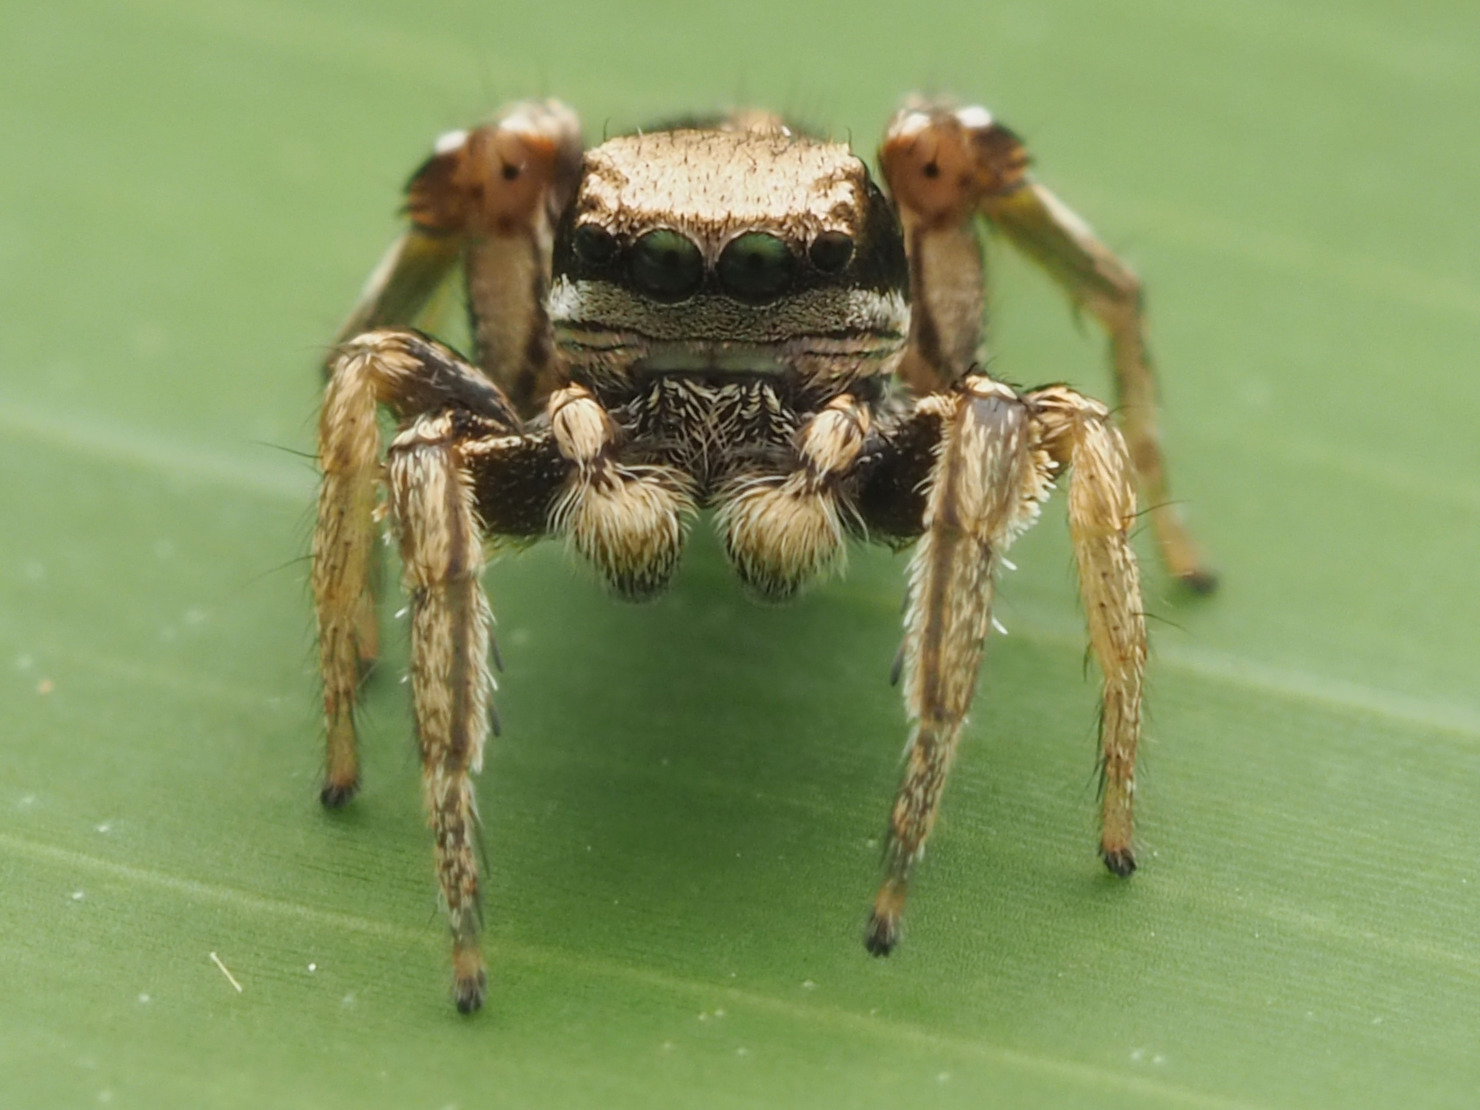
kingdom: Animalia
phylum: Arthropoda
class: Arachnida
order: Araneae
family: Salticidae
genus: Habronattus
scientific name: Habronattus mexicanus
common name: Jumping spiders
